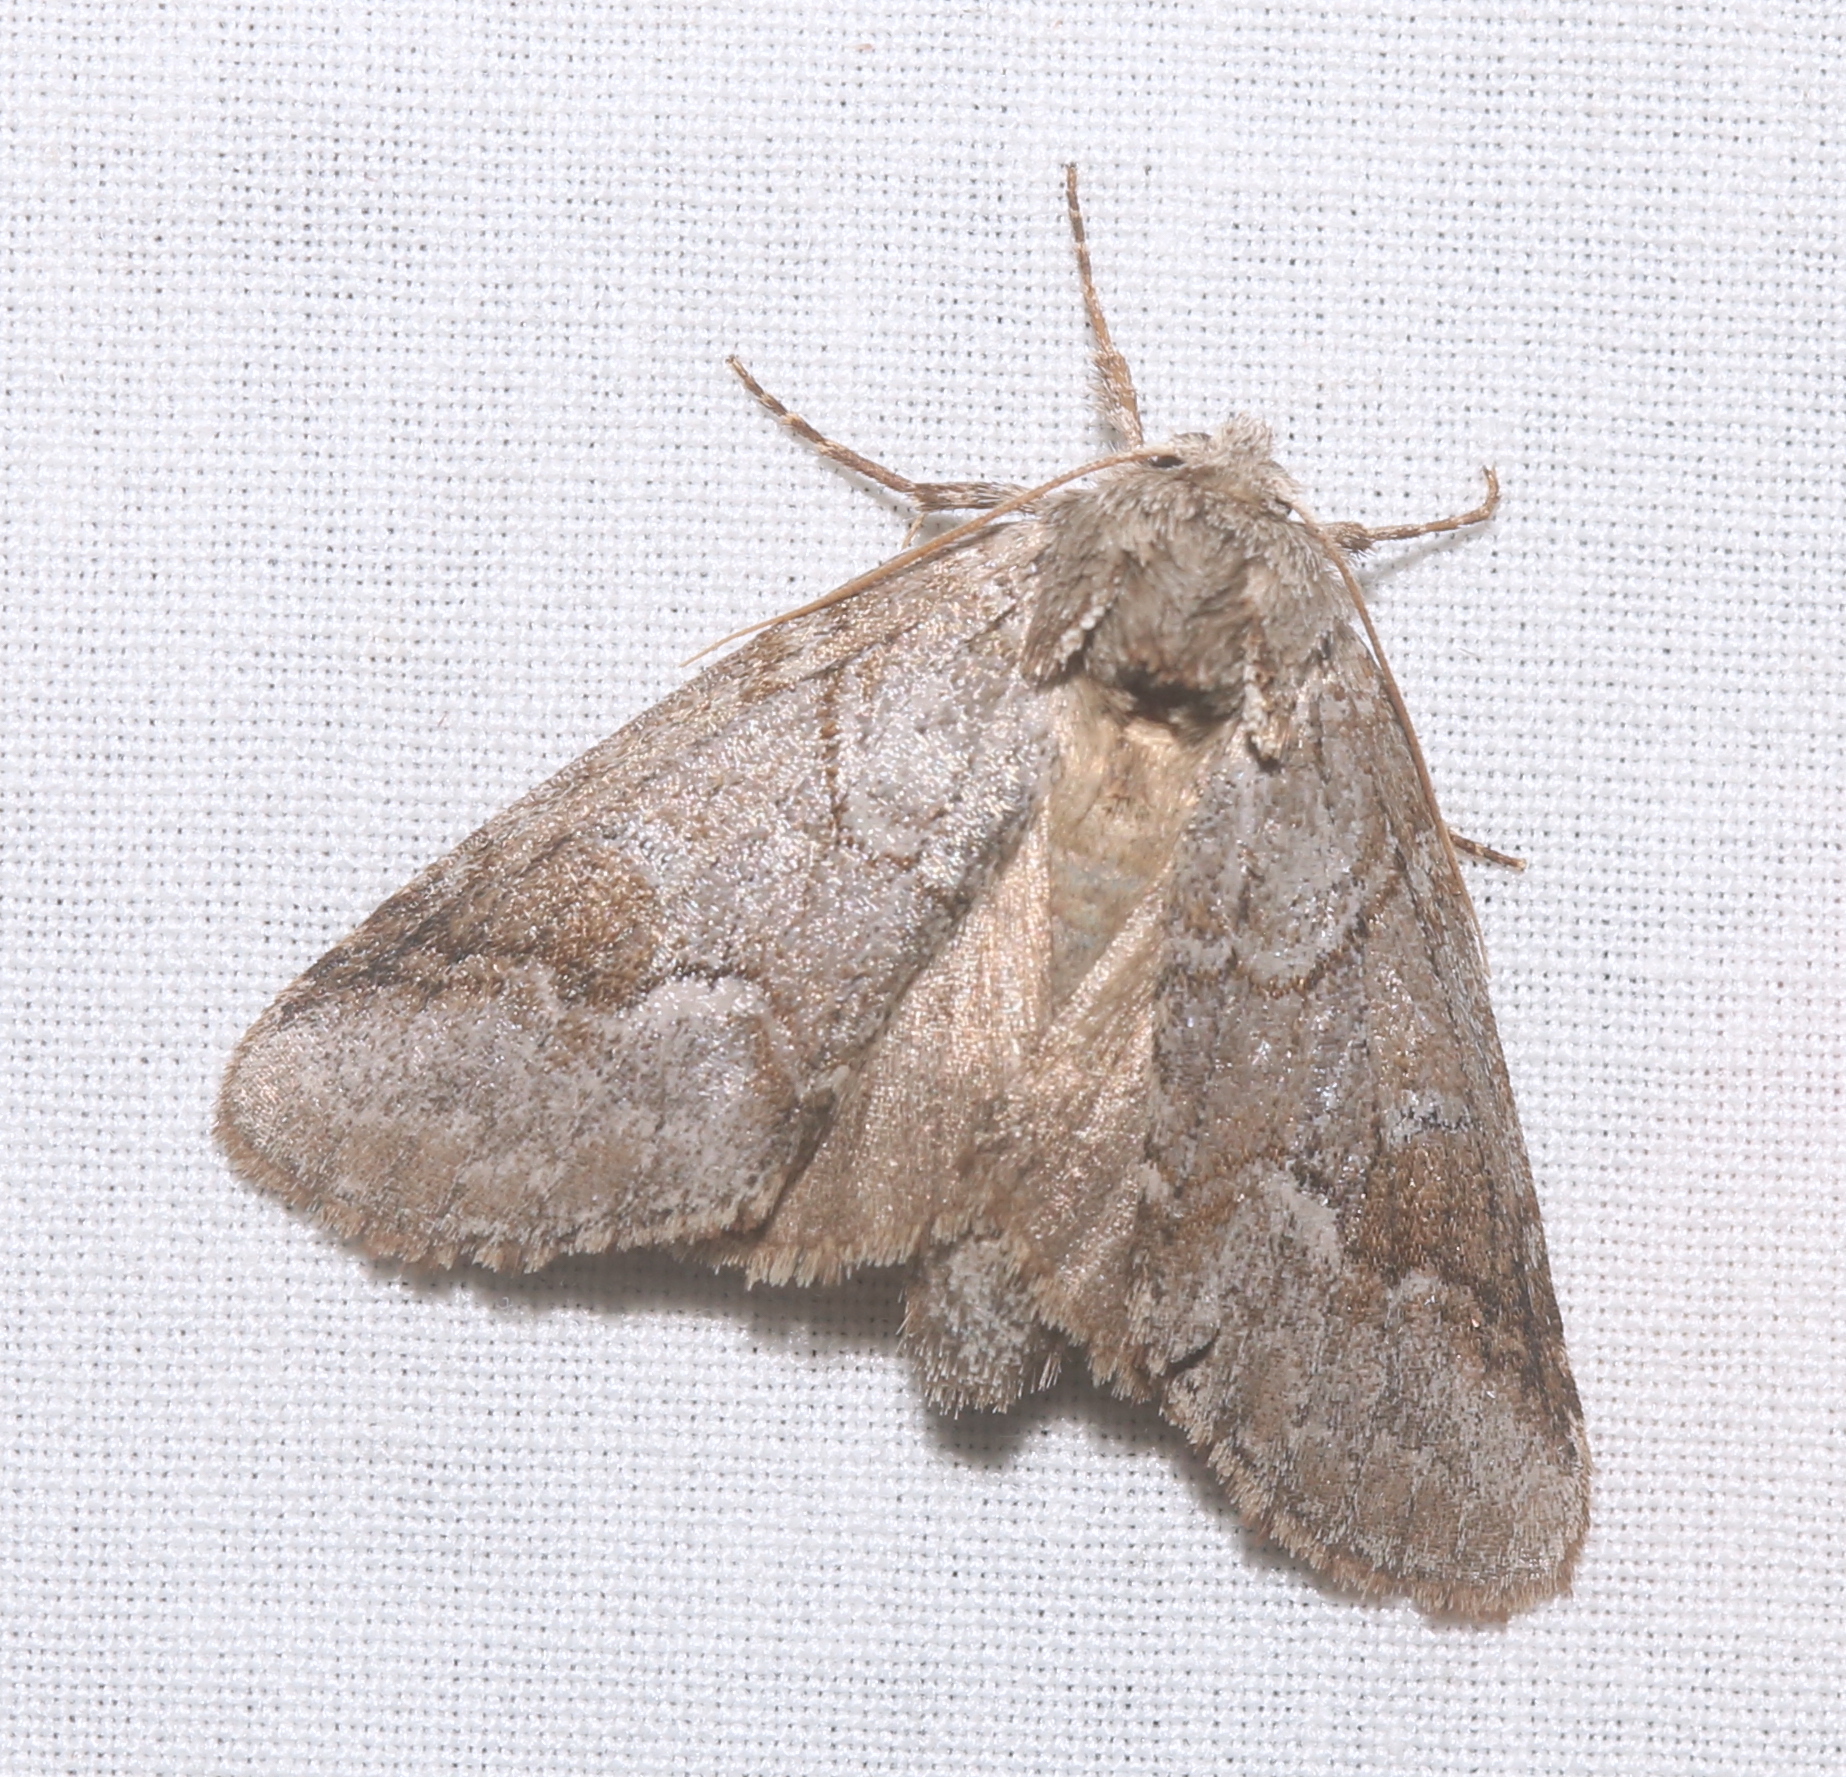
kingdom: Animalia
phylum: Arthropoda
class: Insecta
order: Lepidoptera
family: Notodontidae
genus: Lochmaeus
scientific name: Lochmaeus bilineata
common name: Double-lined prominent
